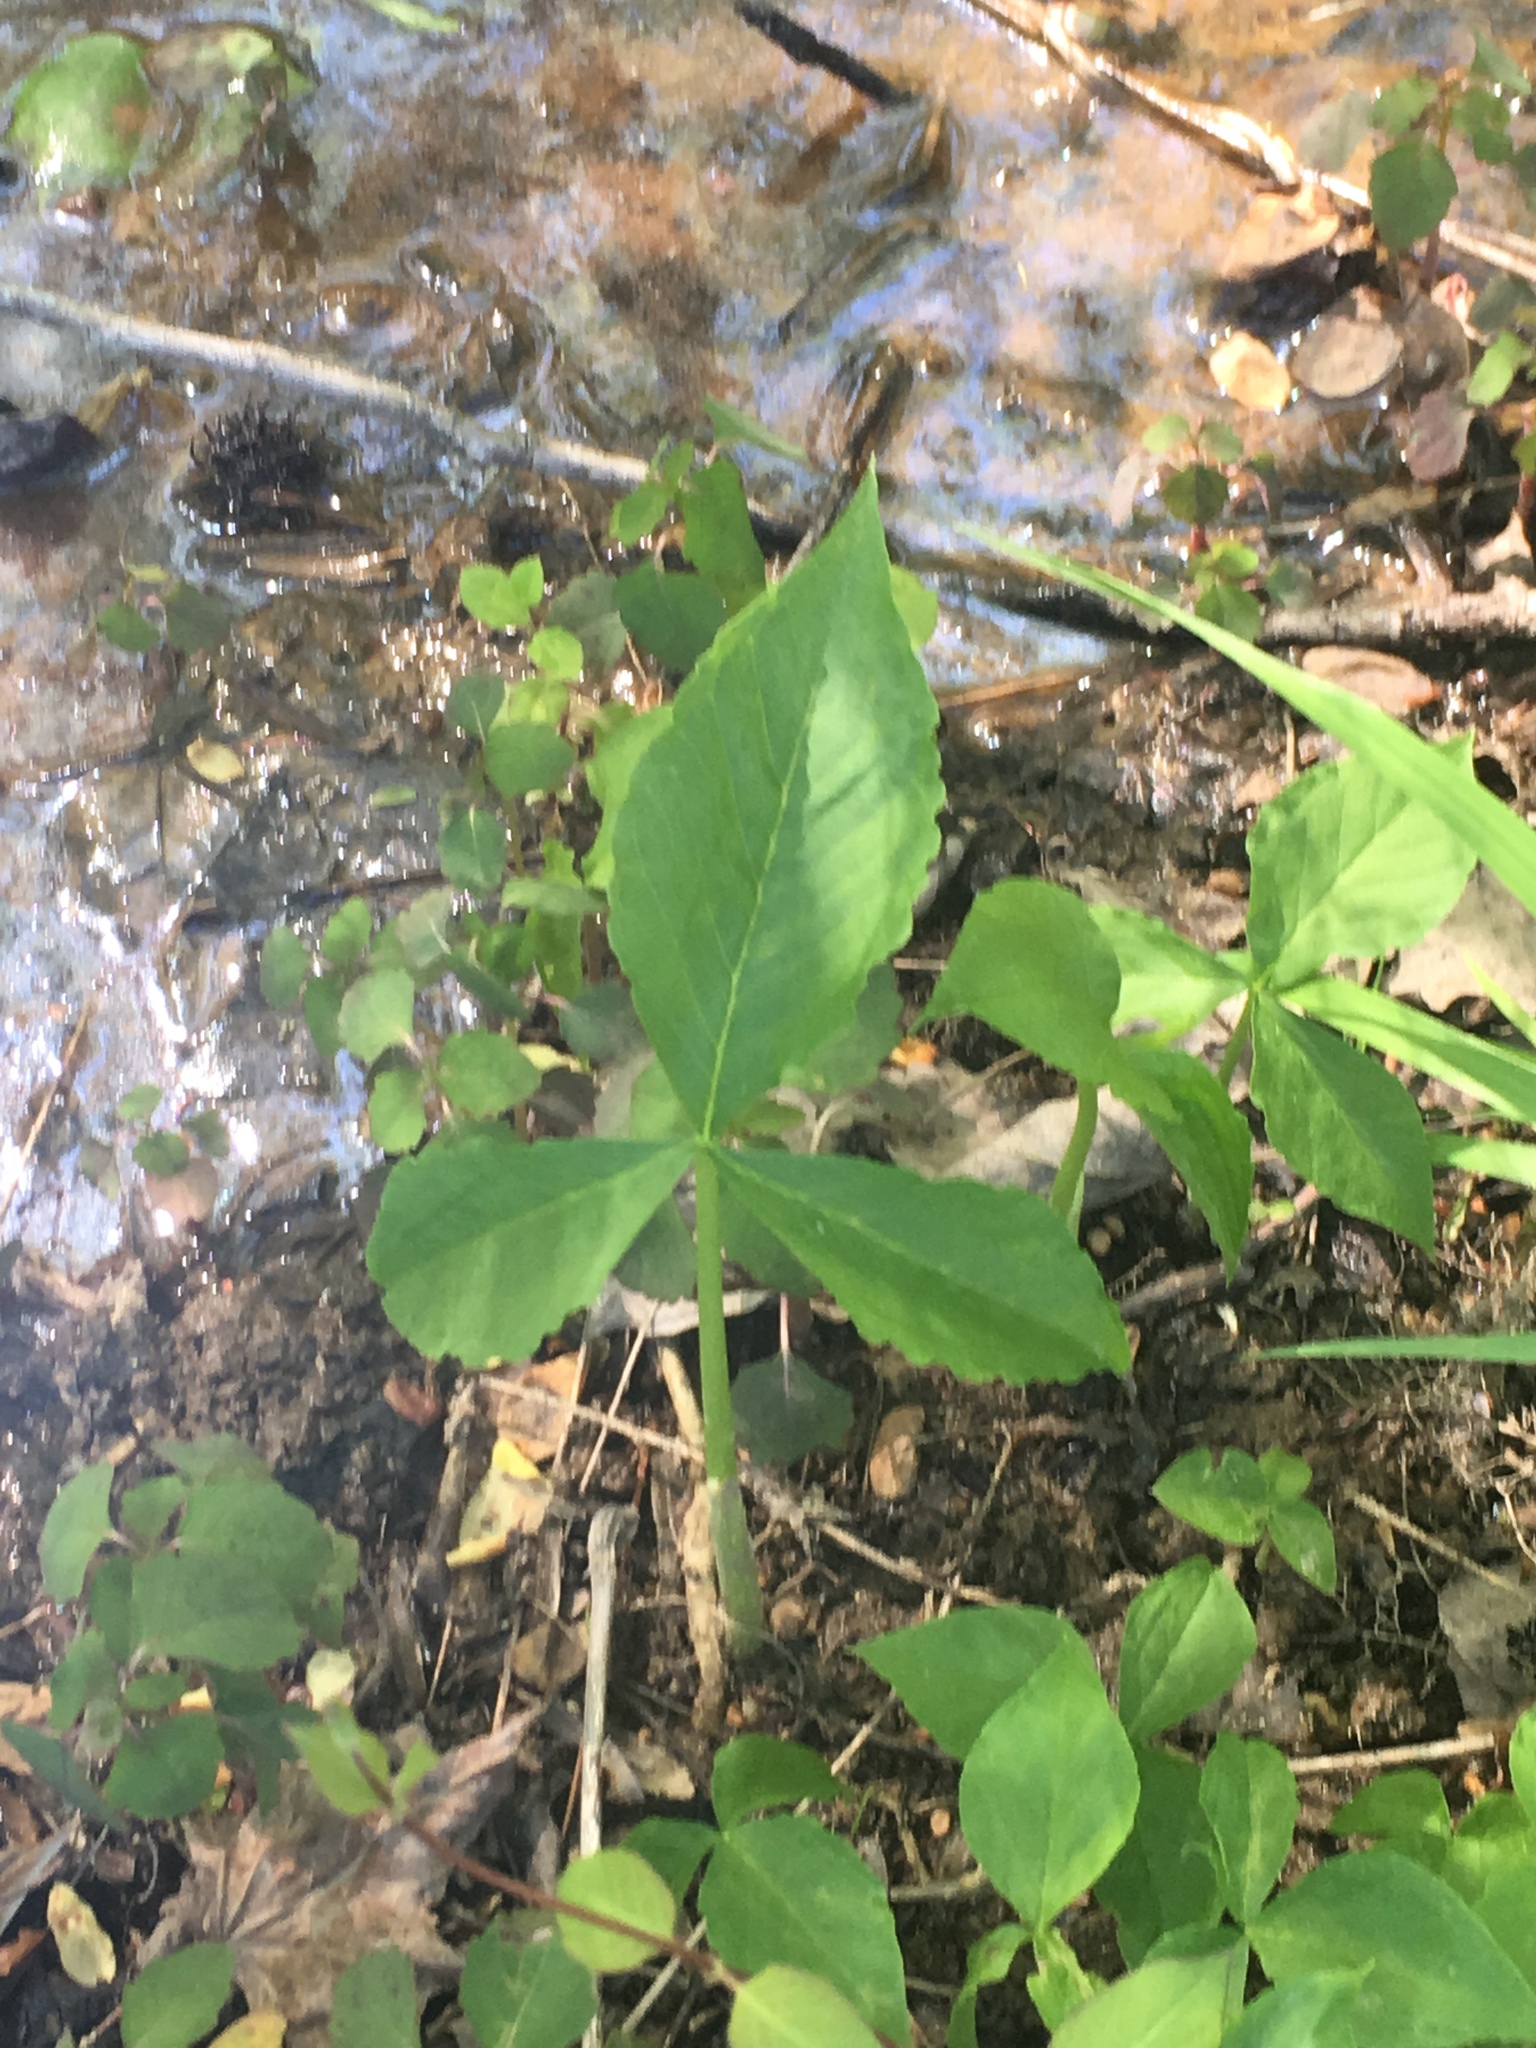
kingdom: Plantae
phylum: Tracheophyta
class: Liliopsida
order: Alismatales
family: Araceae
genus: Arisaema
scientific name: Arisaema triphyllum
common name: Jack-in-the-pulpit
